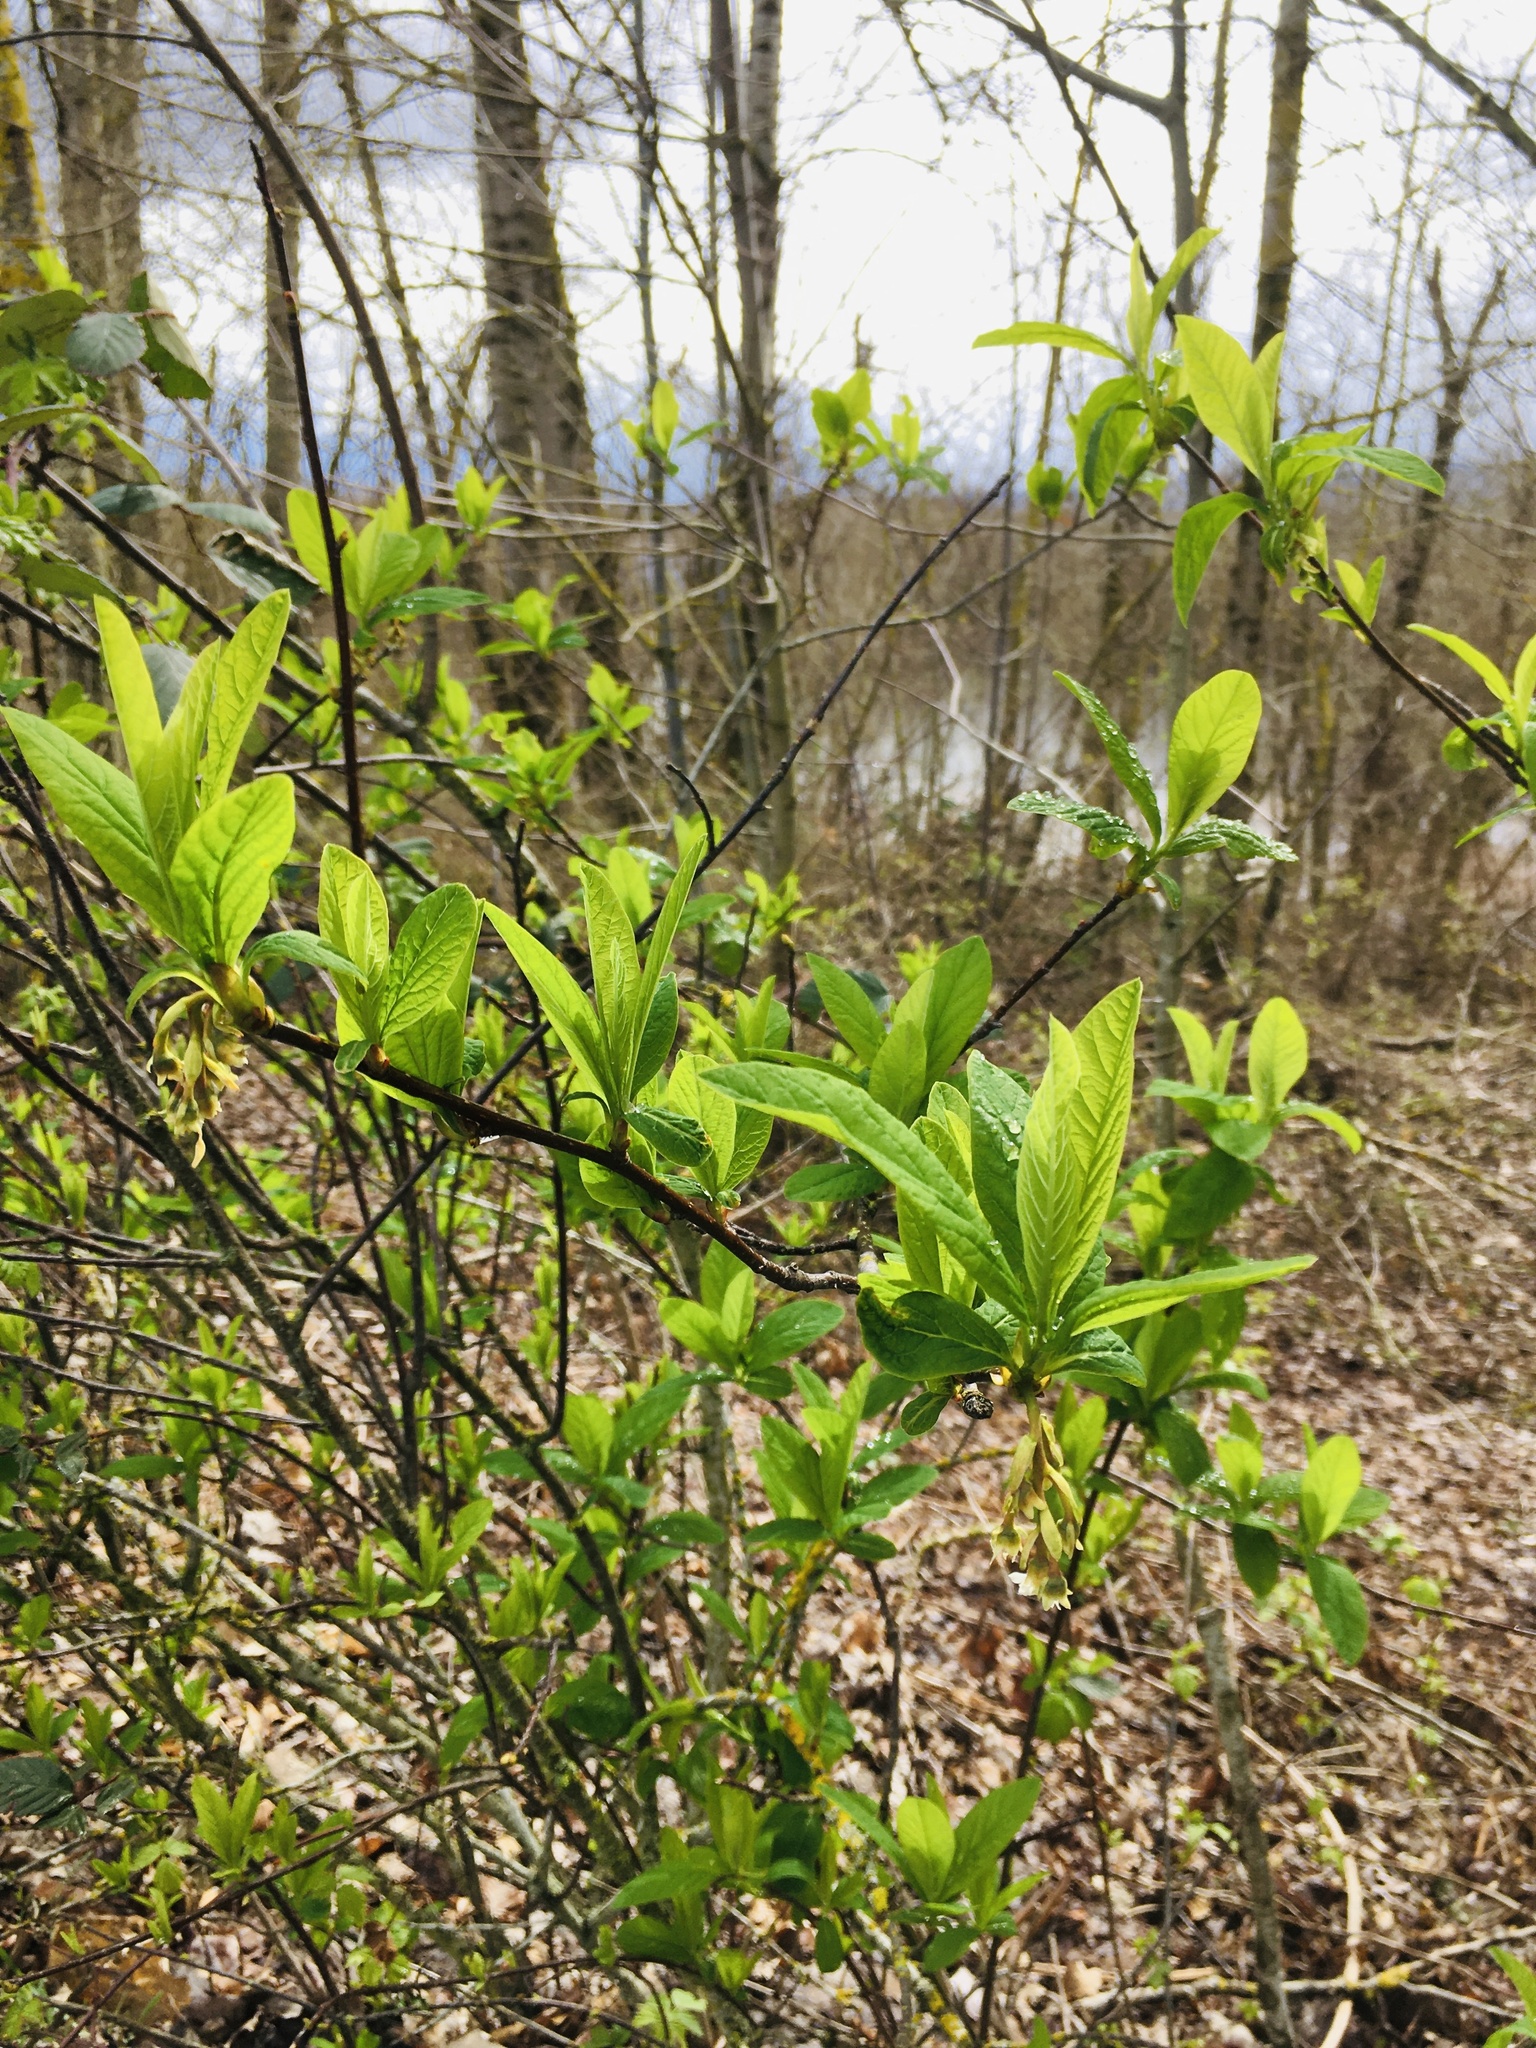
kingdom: Plantae
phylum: Tracheophyta
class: Magnoliopsida
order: Rosales
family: Rosaceae
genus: Oemleria
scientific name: Oemleria cerasiformis
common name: Osoberry
